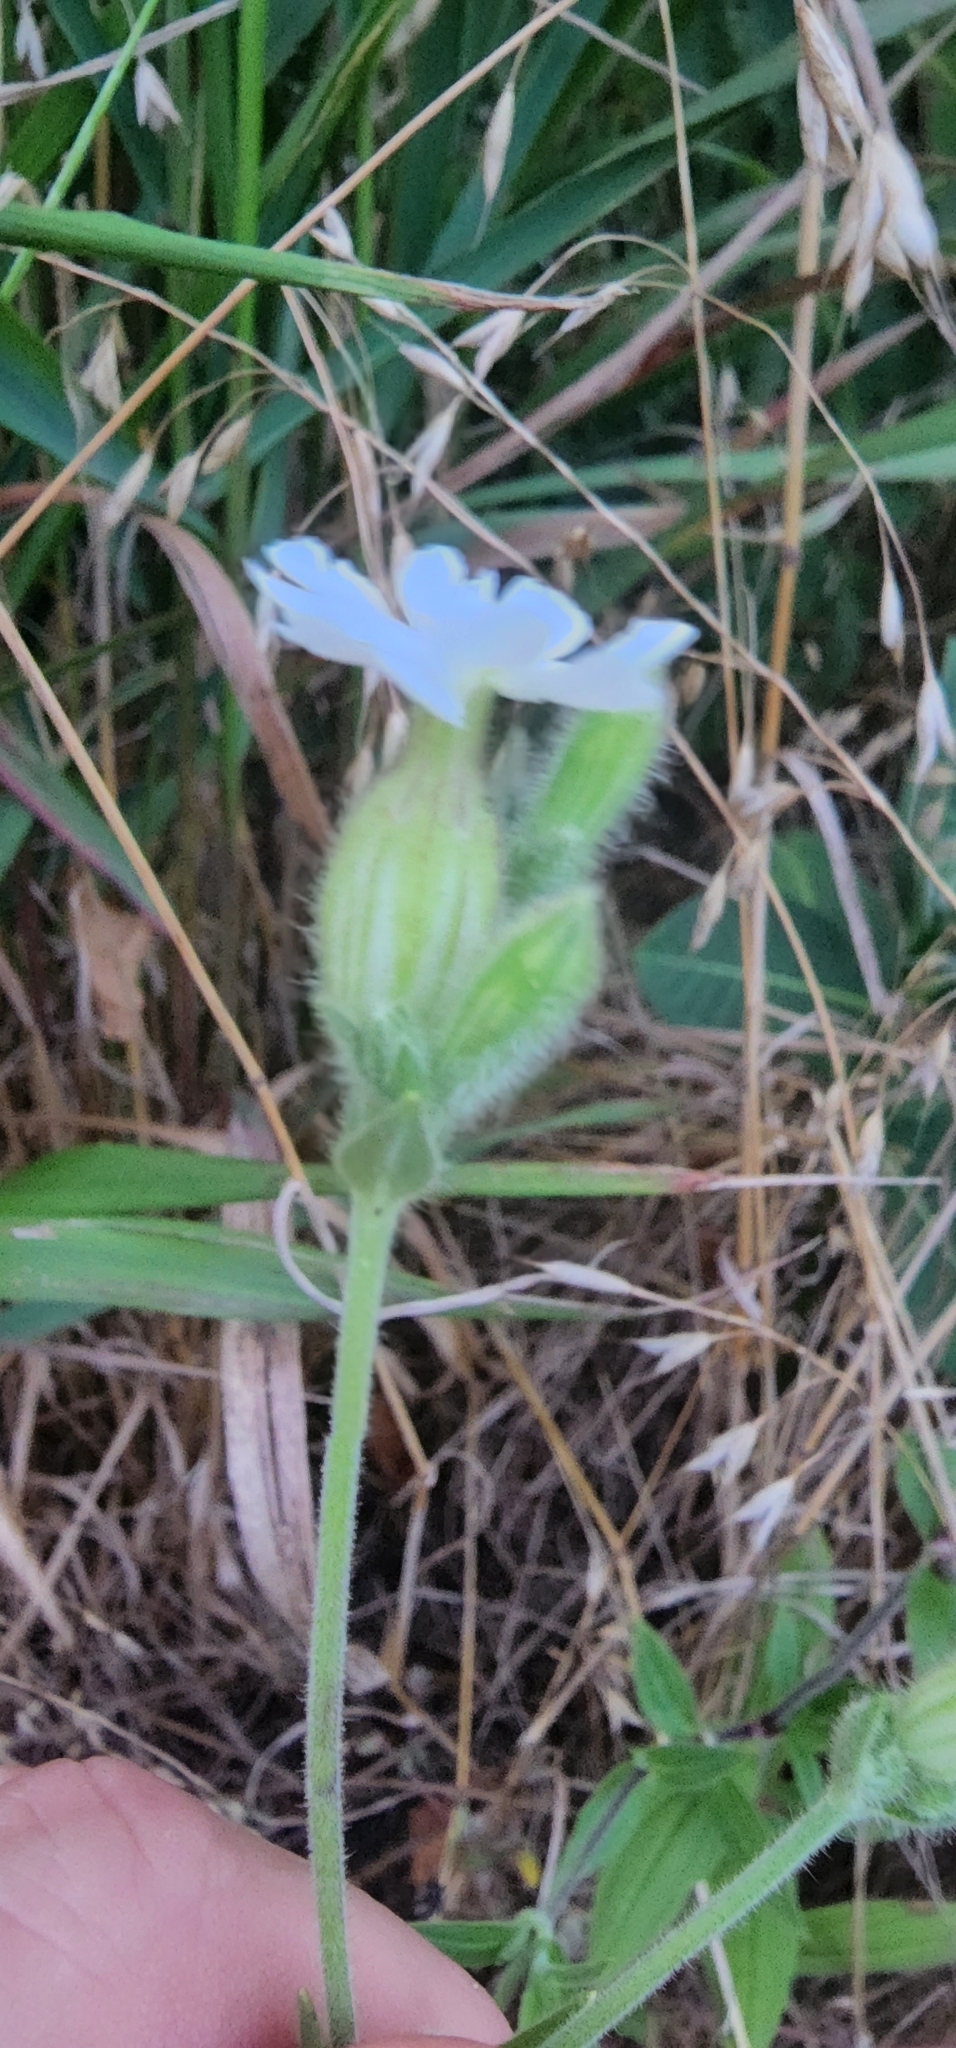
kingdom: Plantae
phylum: Tracheophyta
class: Magnoliopsida
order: Caryophyllales
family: Caryophyllaceae
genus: Silene
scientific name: Silene latifolia
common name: White campion
